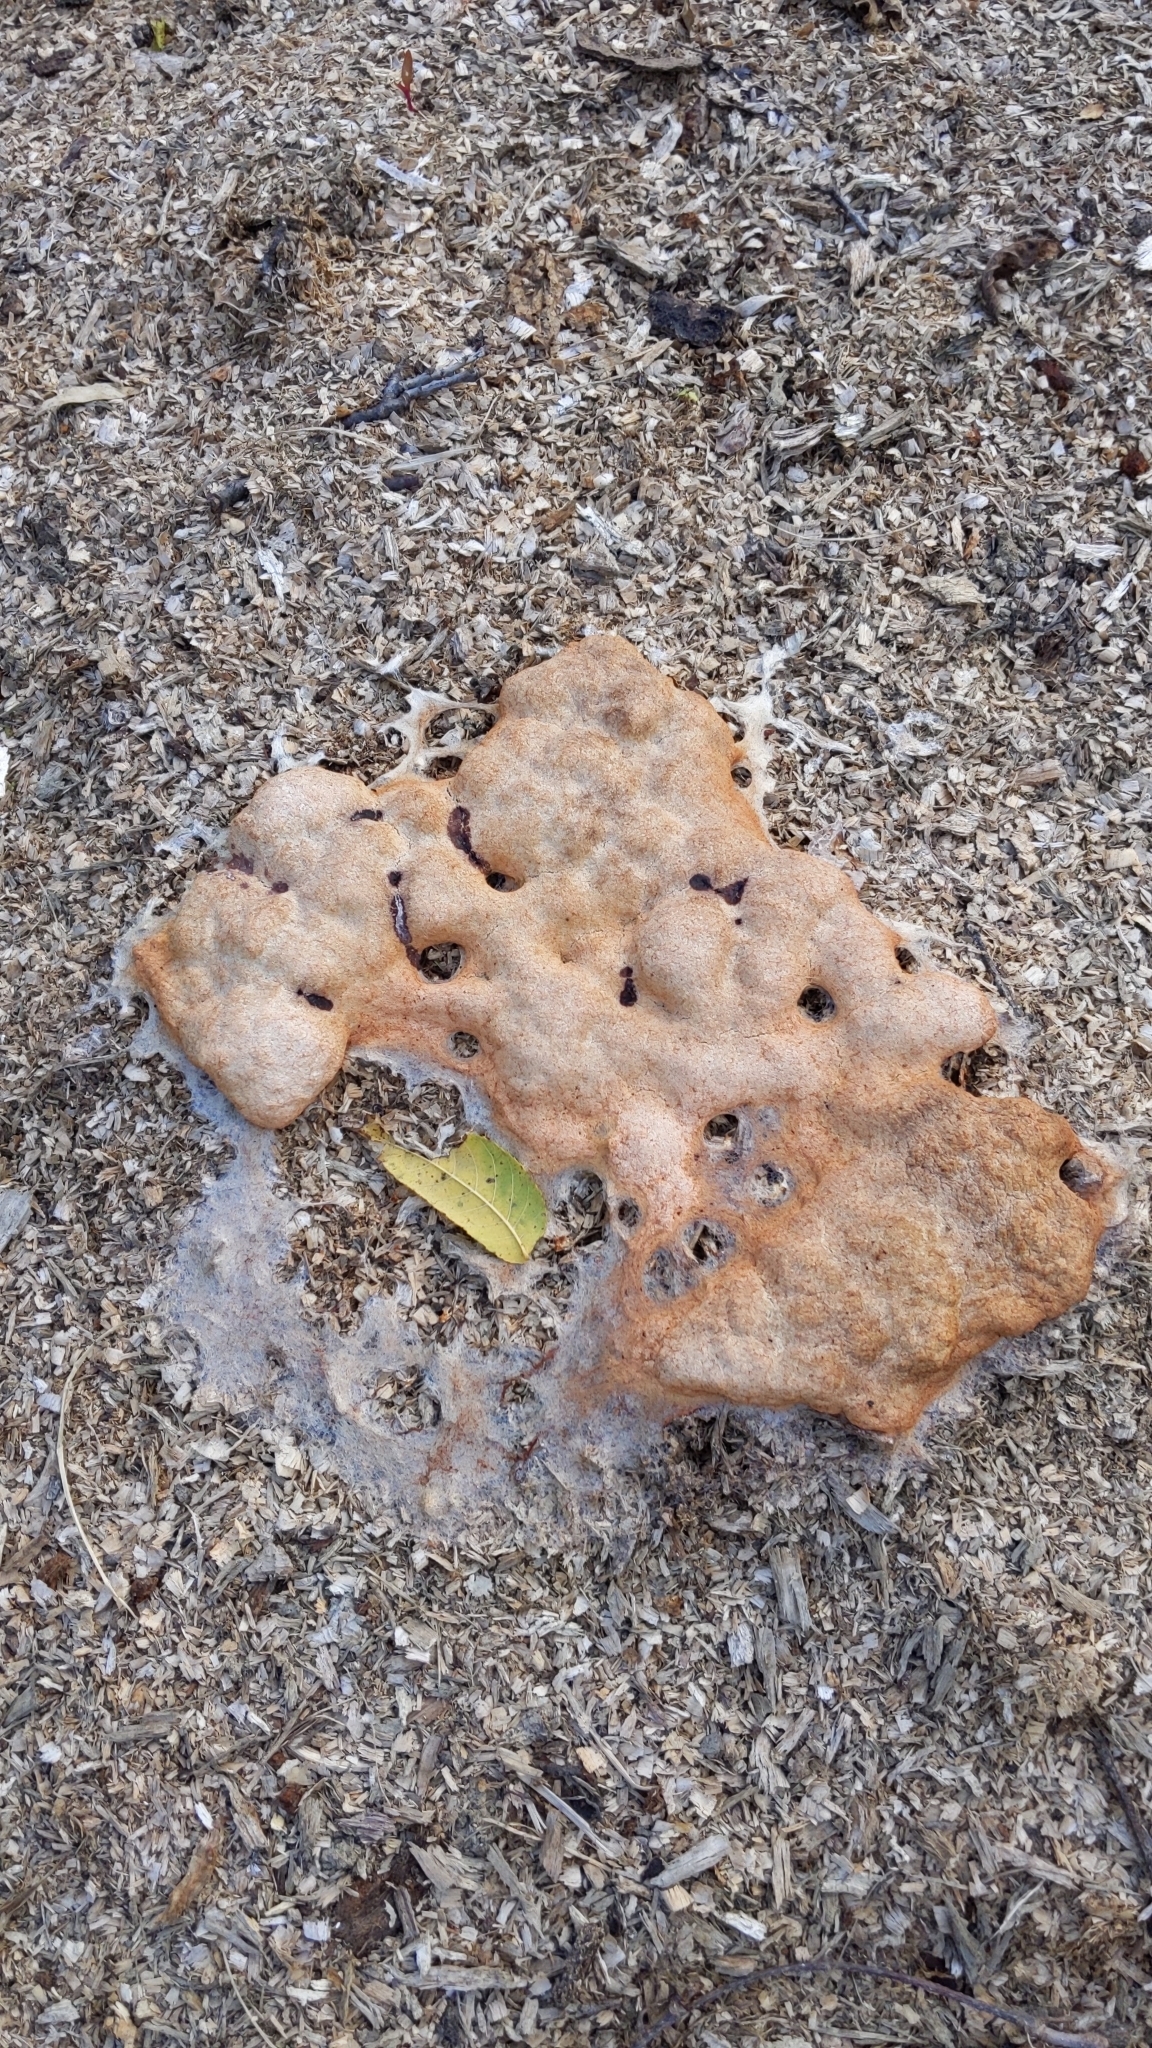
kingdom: Protozoa
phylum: Mycetozoa
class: Myxomycetes
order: Physarales
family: Physaraceae
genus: Fuligo
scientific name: Fuligo septica
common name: Dog vomit slime mold
